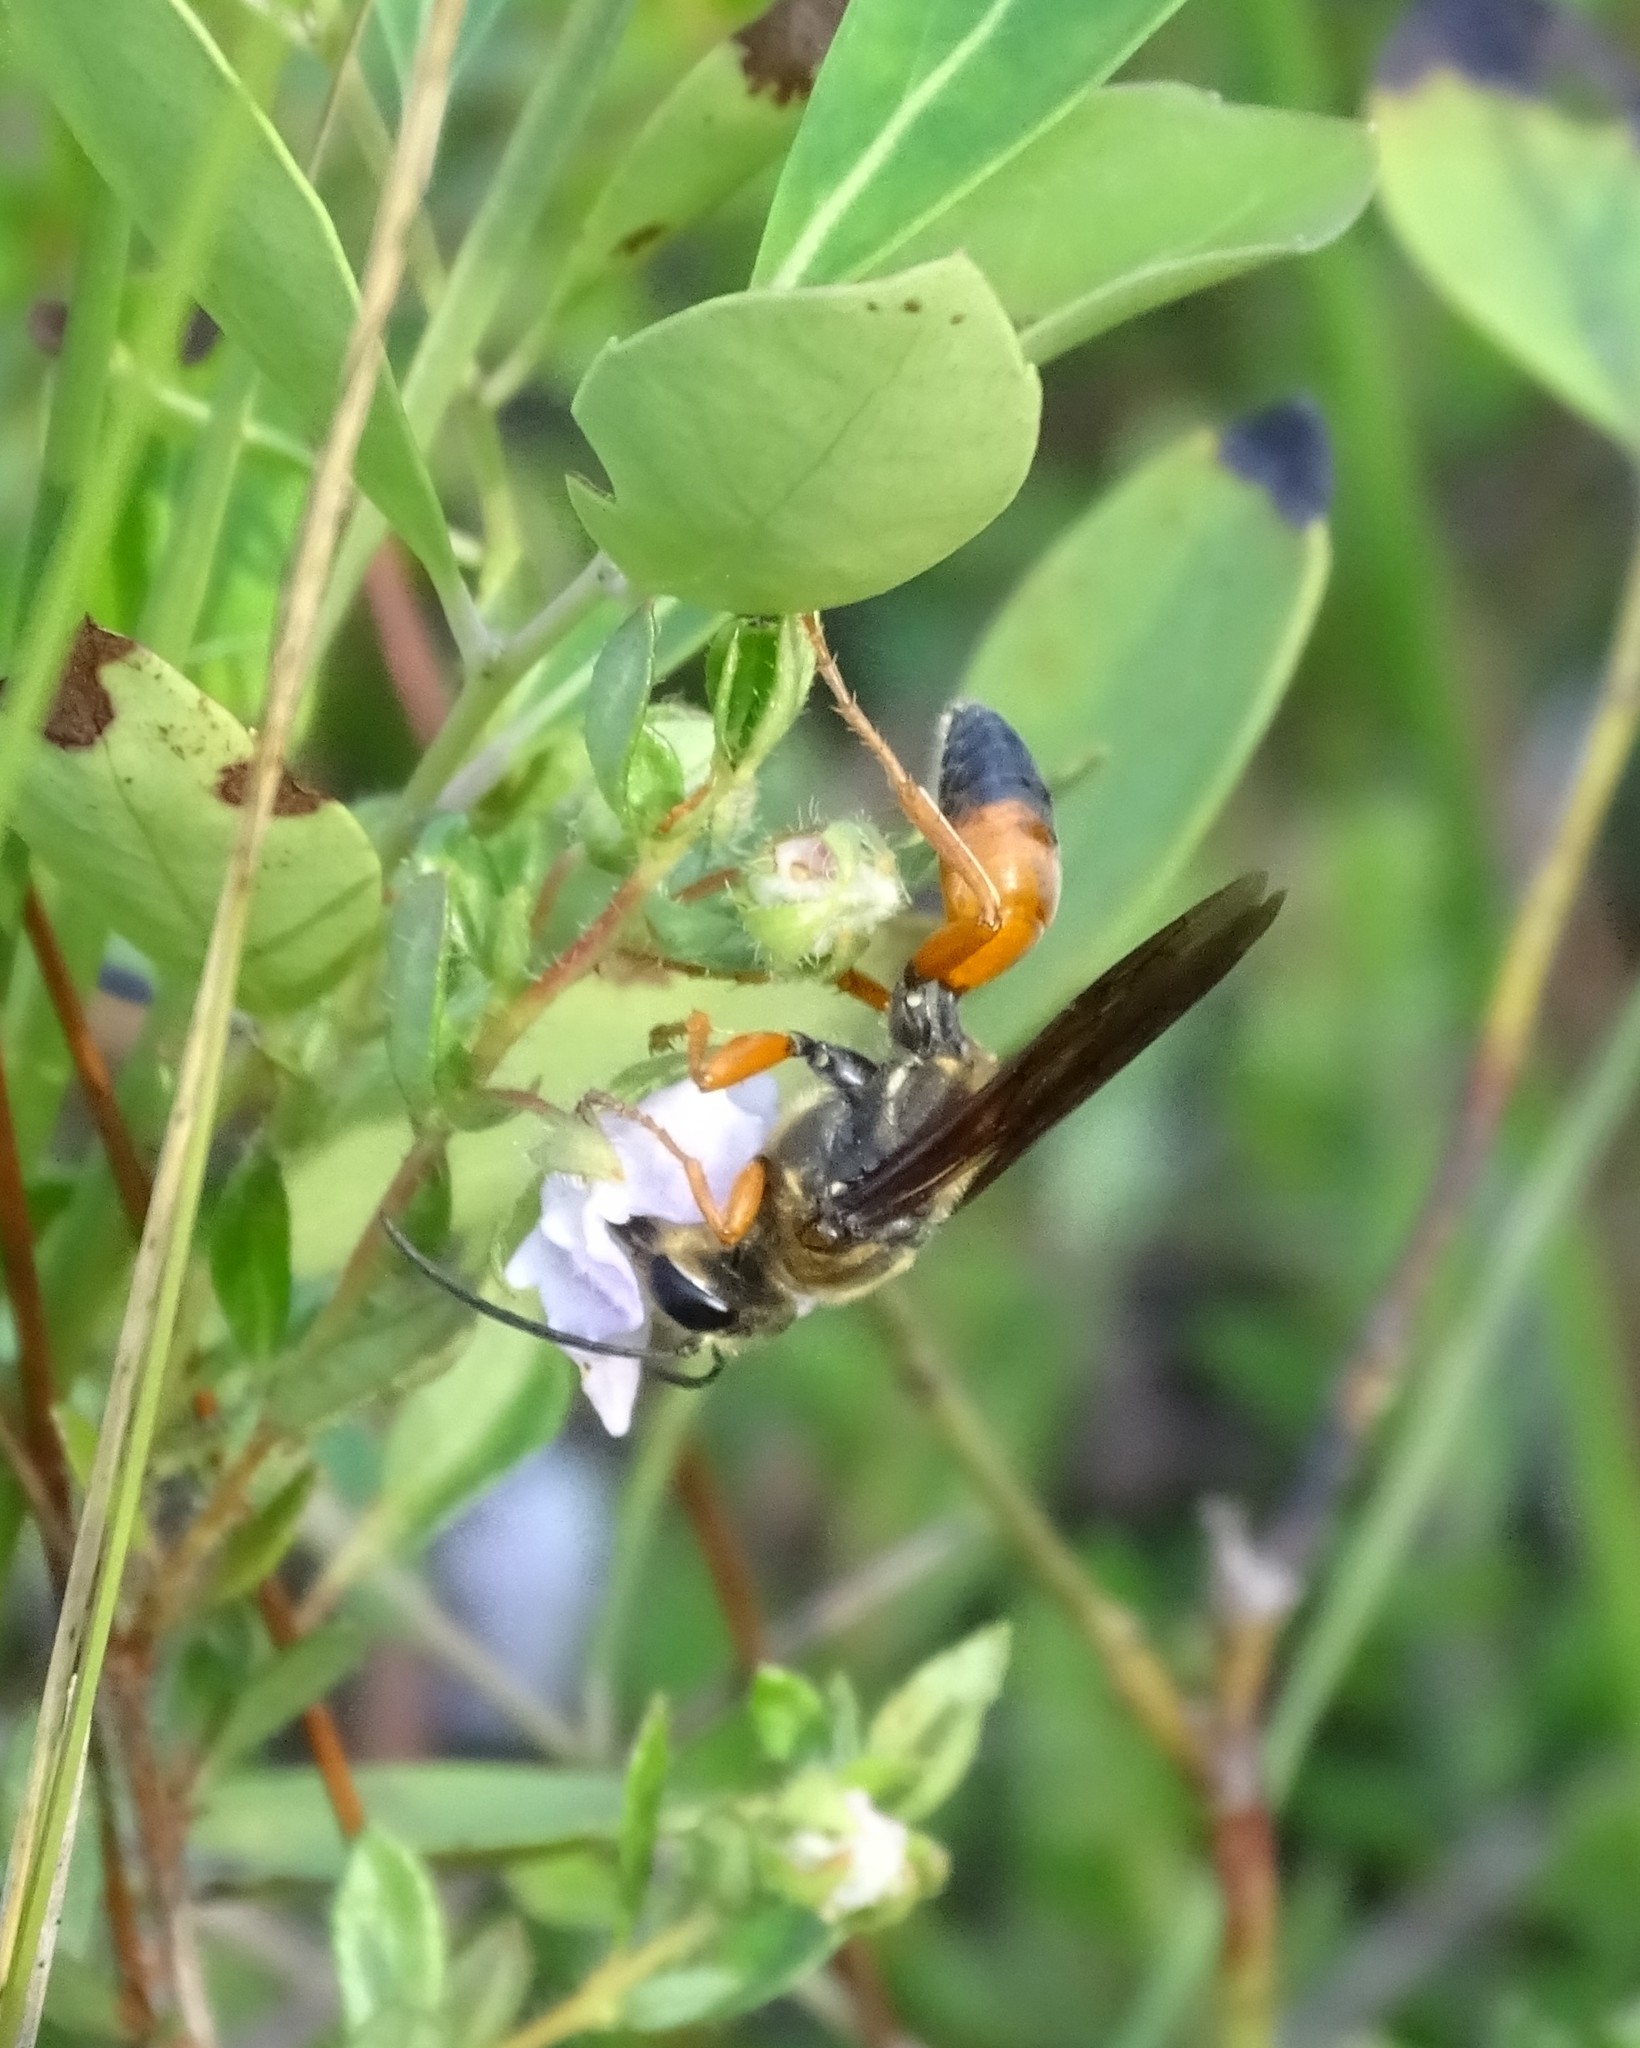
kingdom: Animalia
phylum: Arthropoda
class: Insecta
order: Hymenoptera
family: Sphecidae
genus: Sphex
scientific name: Sphex ichneumoneus
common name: Great golden digger wasp
